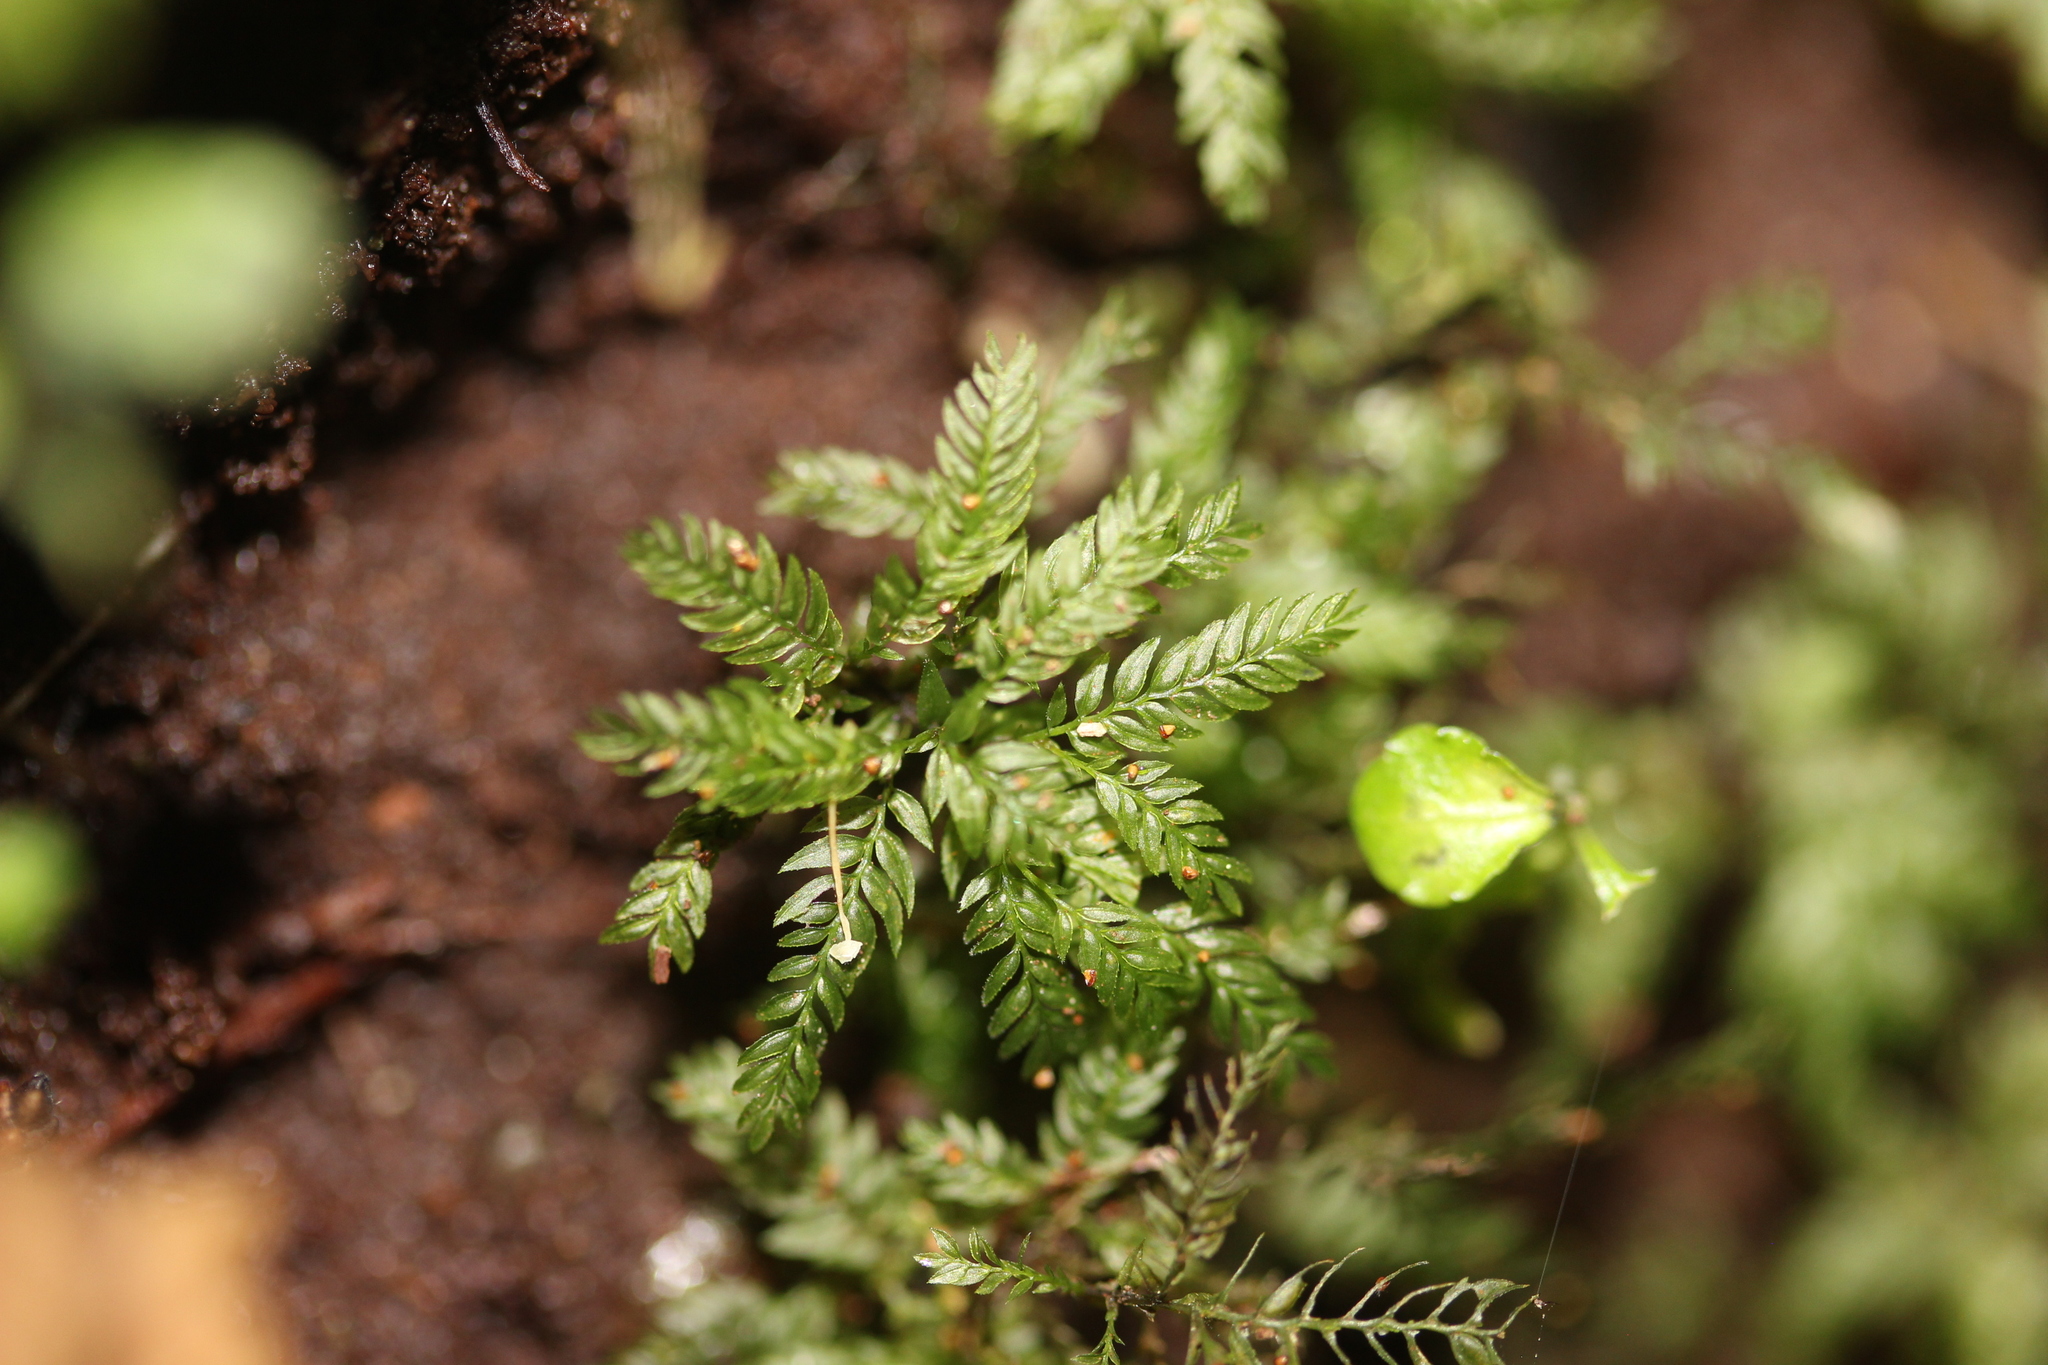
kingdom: Plantae
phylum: Bryophyta
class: Bryopsida
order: Aulacomniales
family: Aulacomniaceae
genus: Hymenodontopsis
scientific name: Hymenodontopsis bifaria
